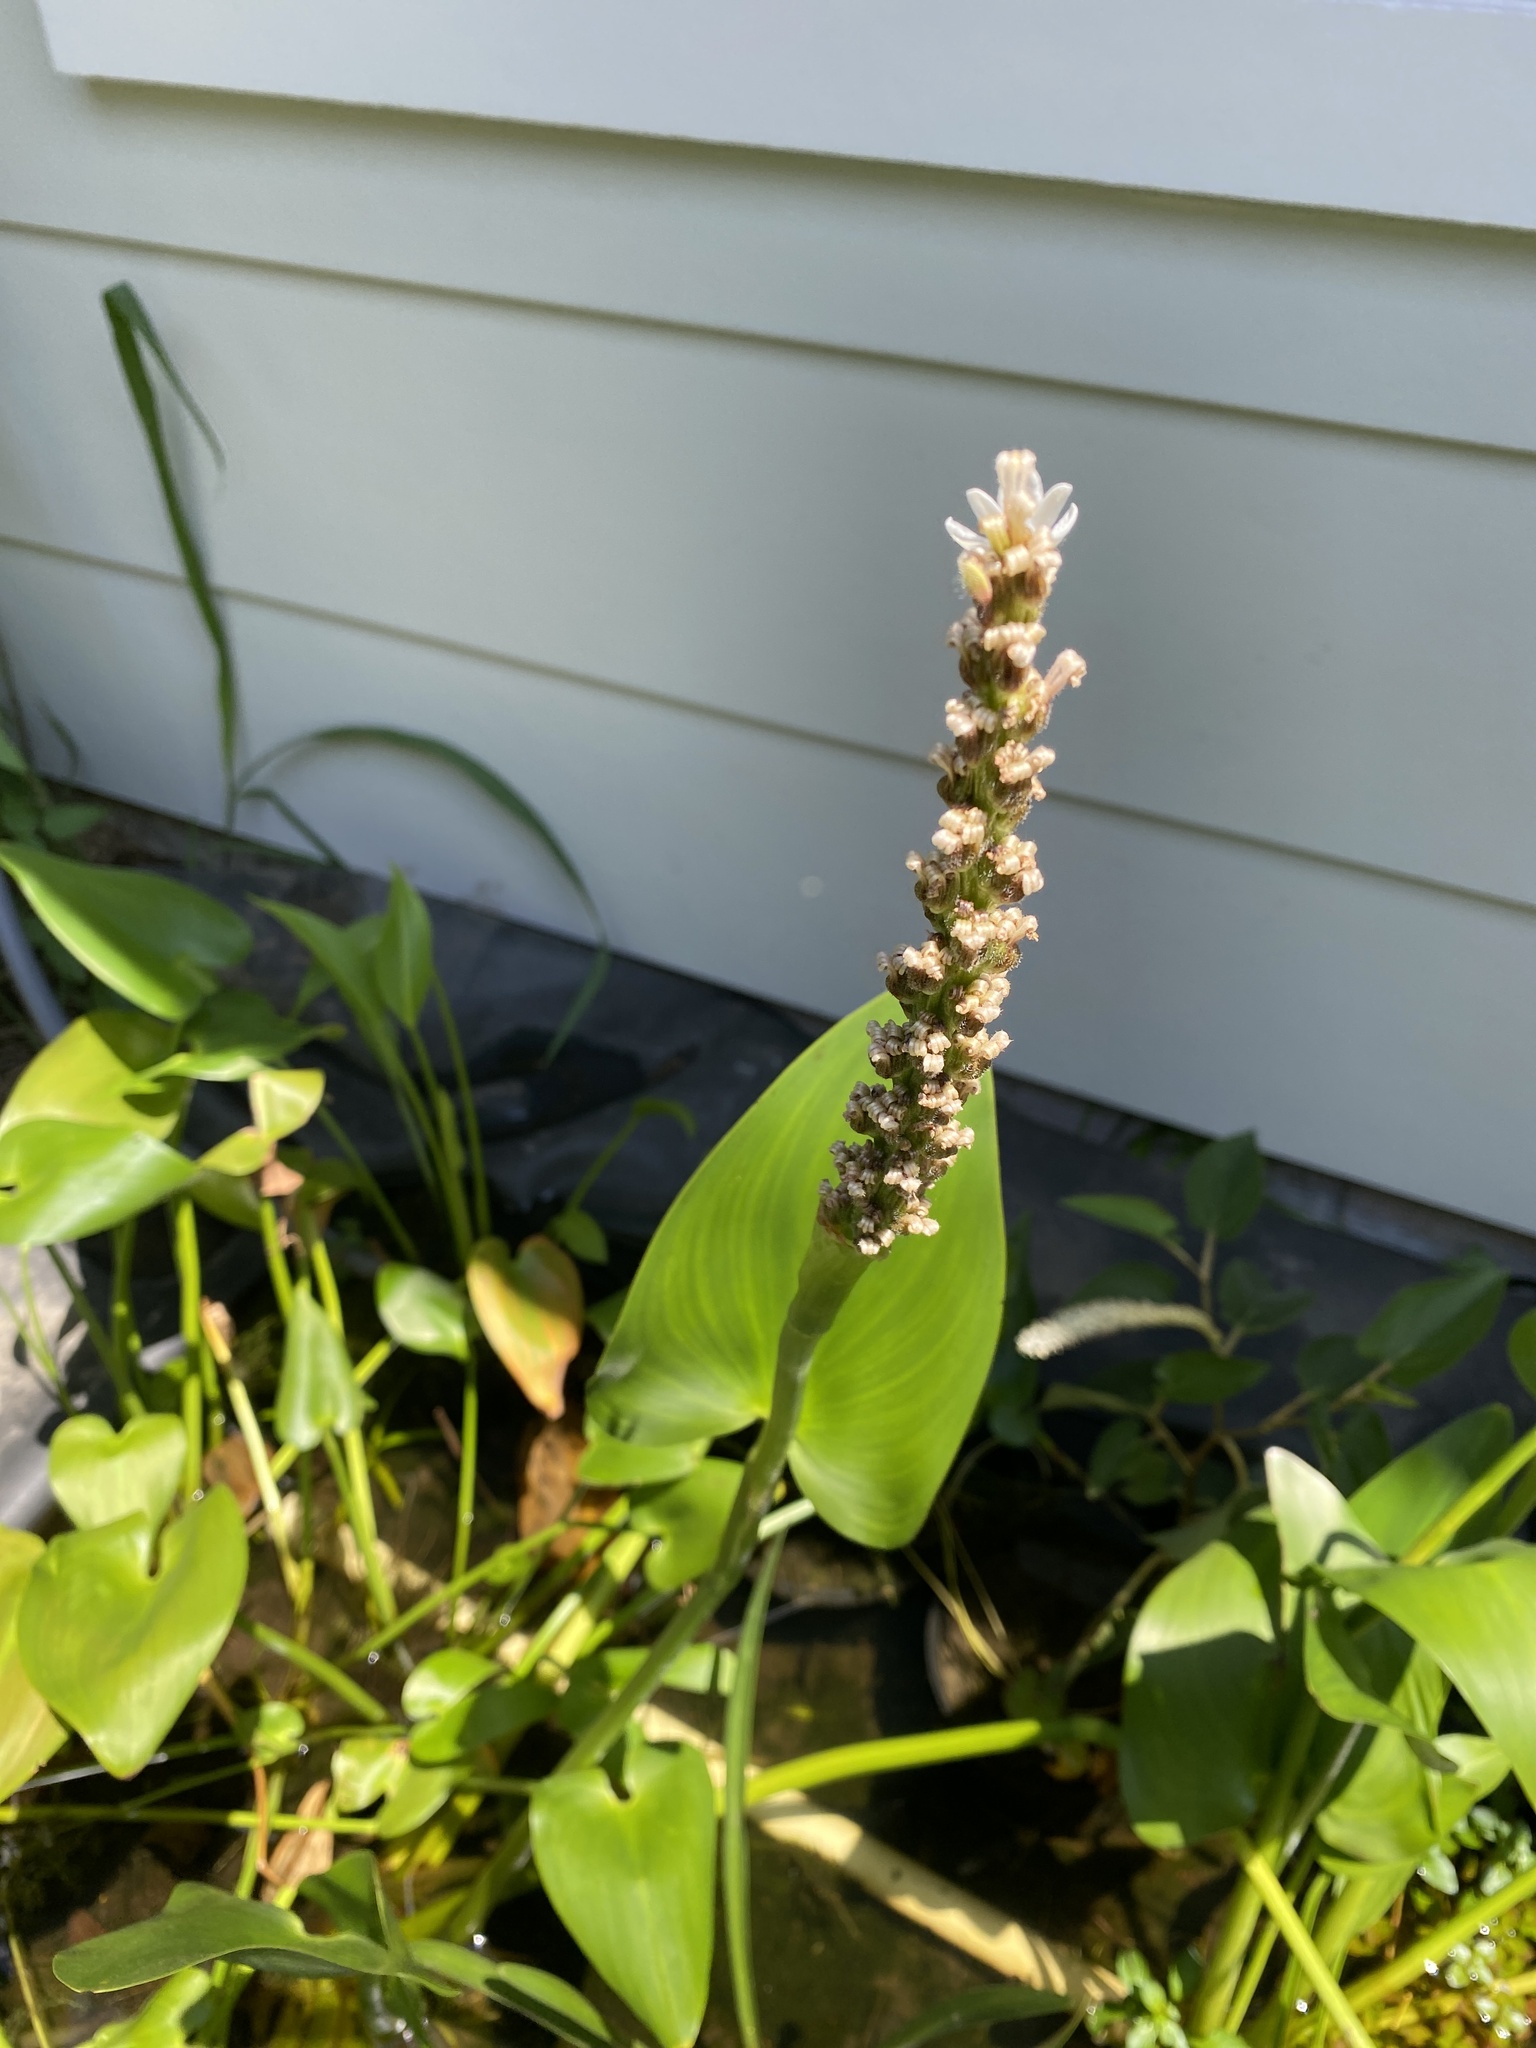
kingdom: Plantae
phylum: Tracheophyta
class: Liliopsida
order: Commelinales
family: Pontederiaceae
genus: Pontederia
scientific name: Pontederia cordata
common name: Pickerelweed
